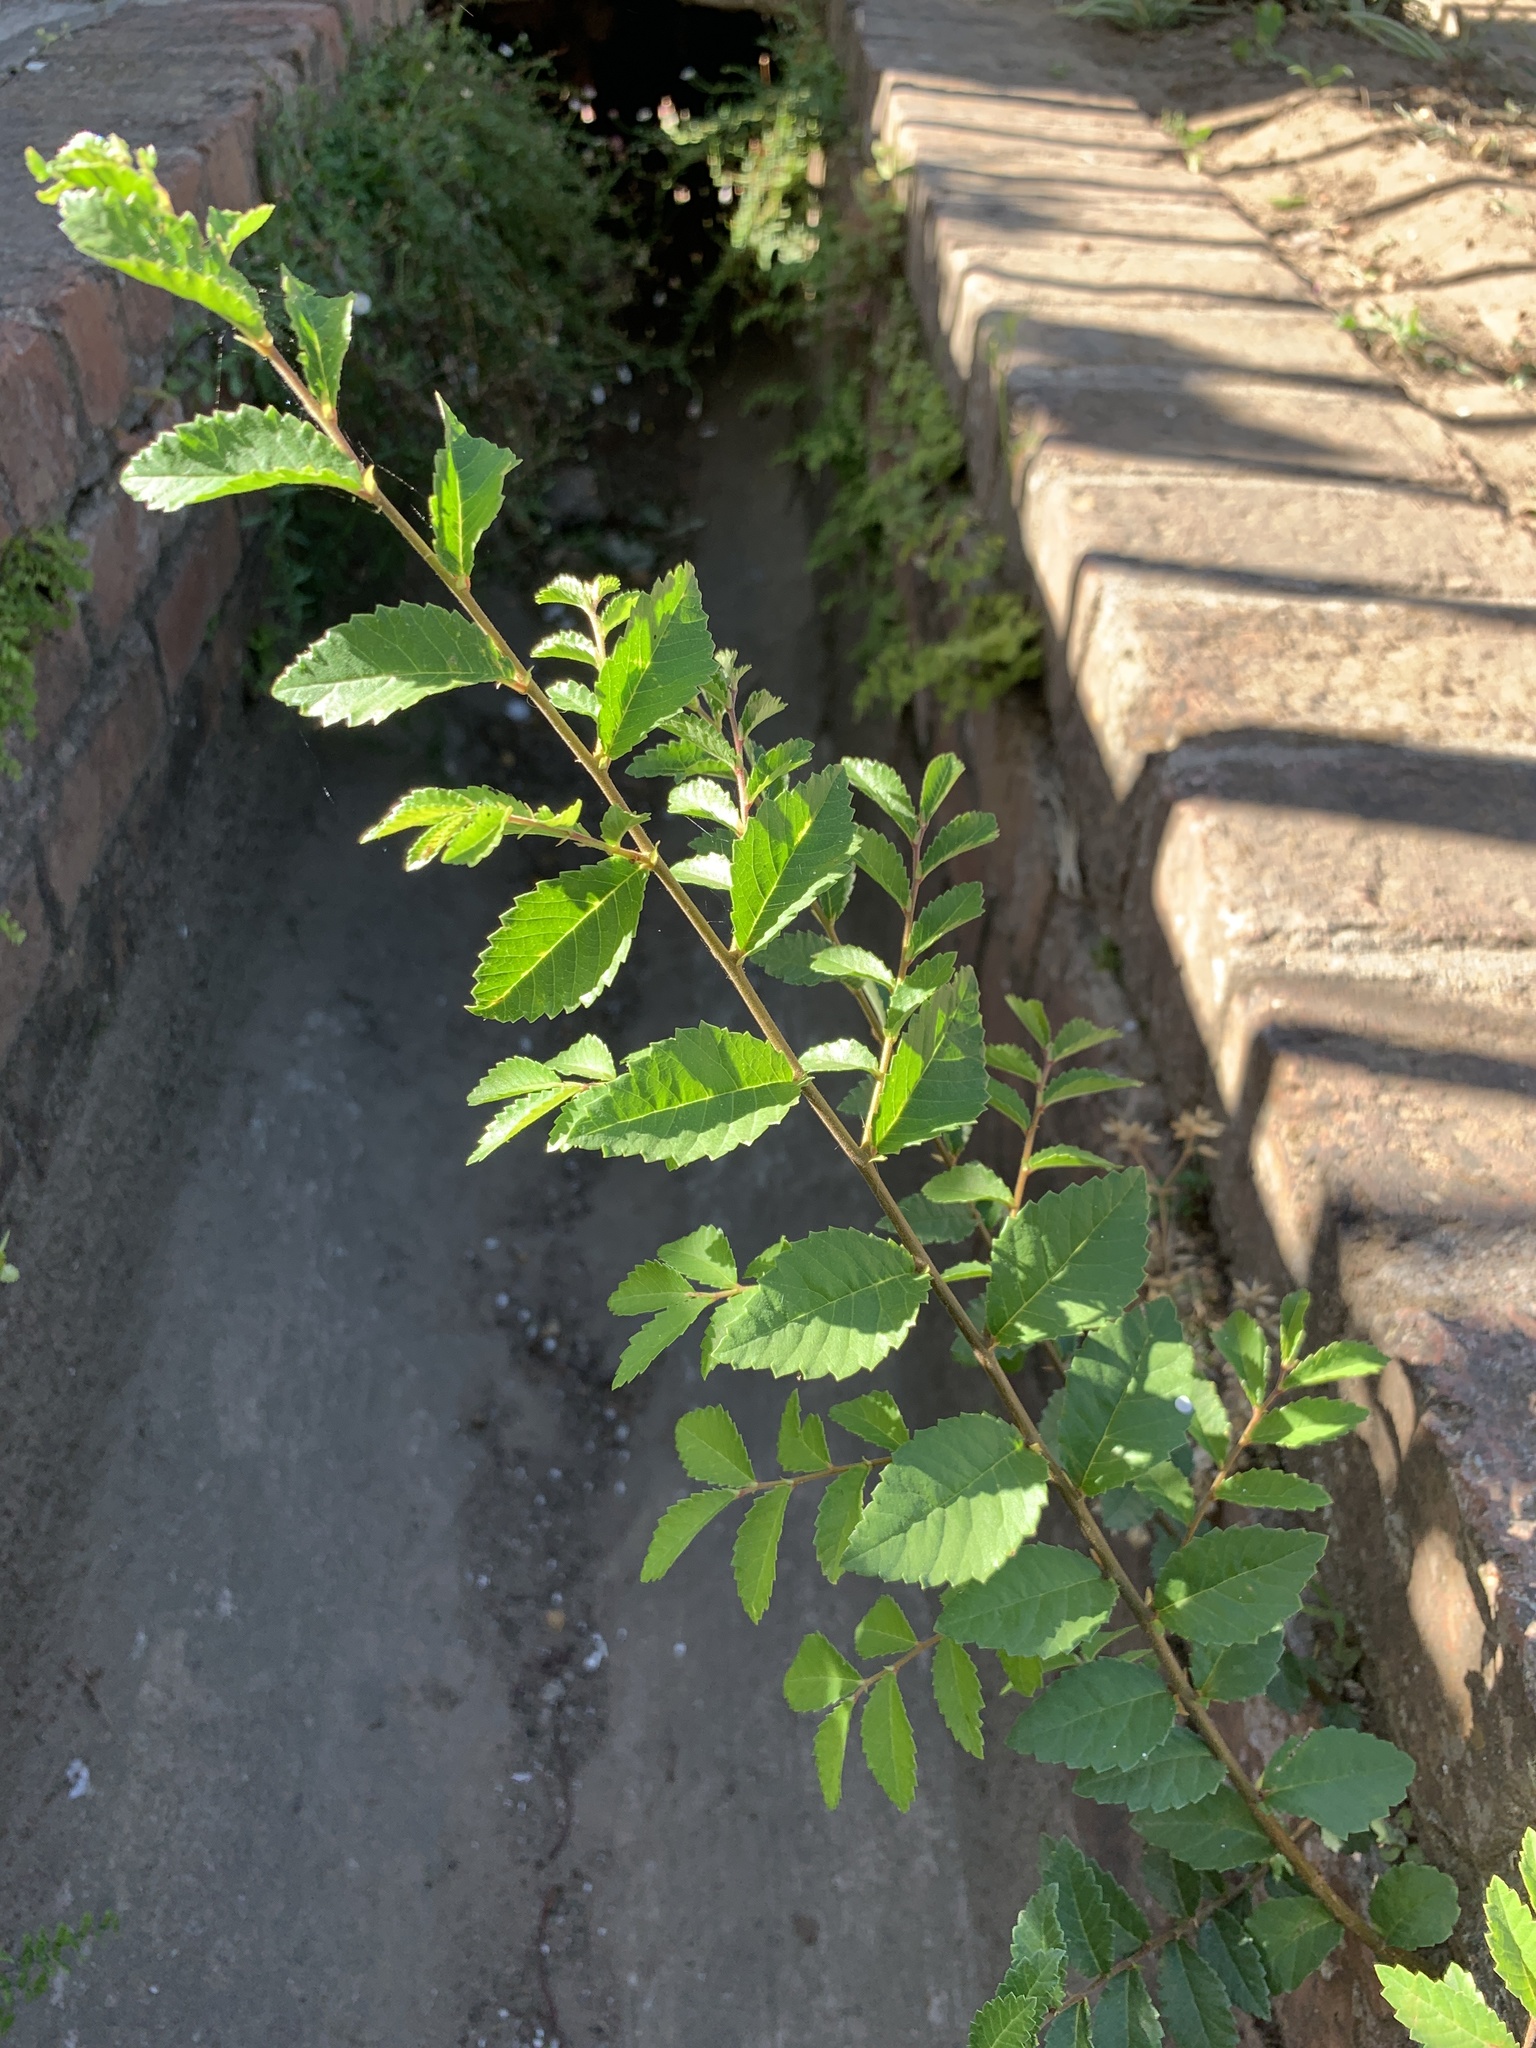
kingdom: Plantae
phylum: Tracheophyta
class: Magnoliopsida
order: Rosales
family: Ulmaceae
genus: Ulmus
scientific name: Ulmus parvifolia
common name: Chinese elm
